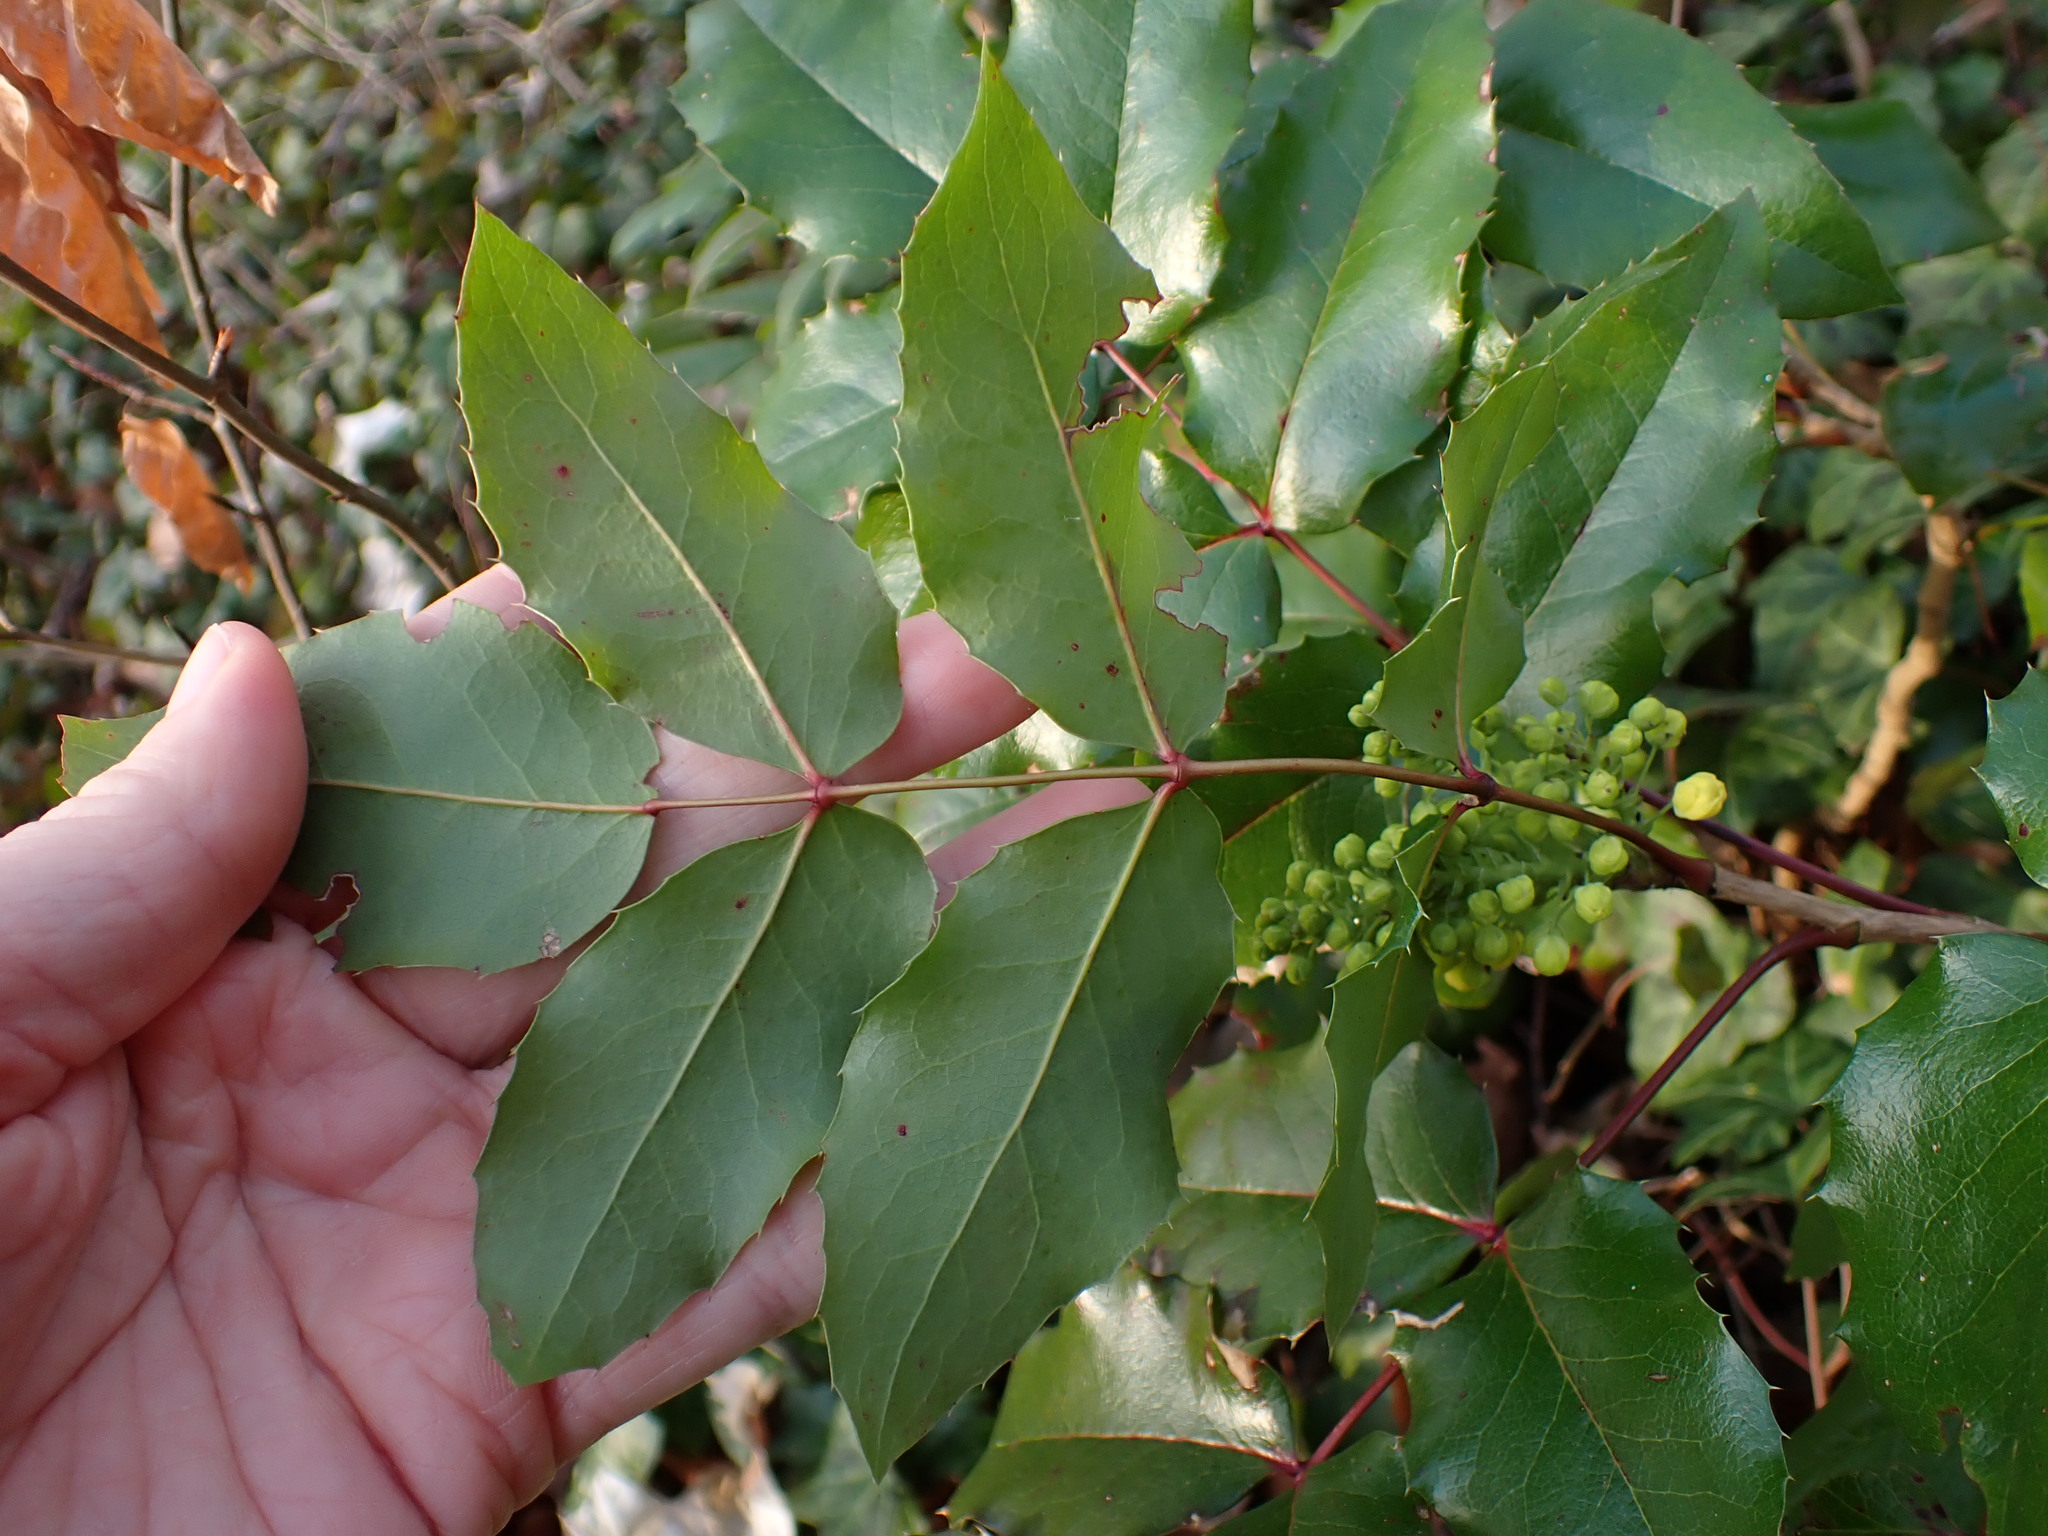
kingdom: Plantae
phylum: Tracheophyta
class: Magnoliopsida
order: Ranunculales
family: Berberidaceae
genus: Mahonia
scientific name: Mahonia aquifolium
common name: Oregon-grape
